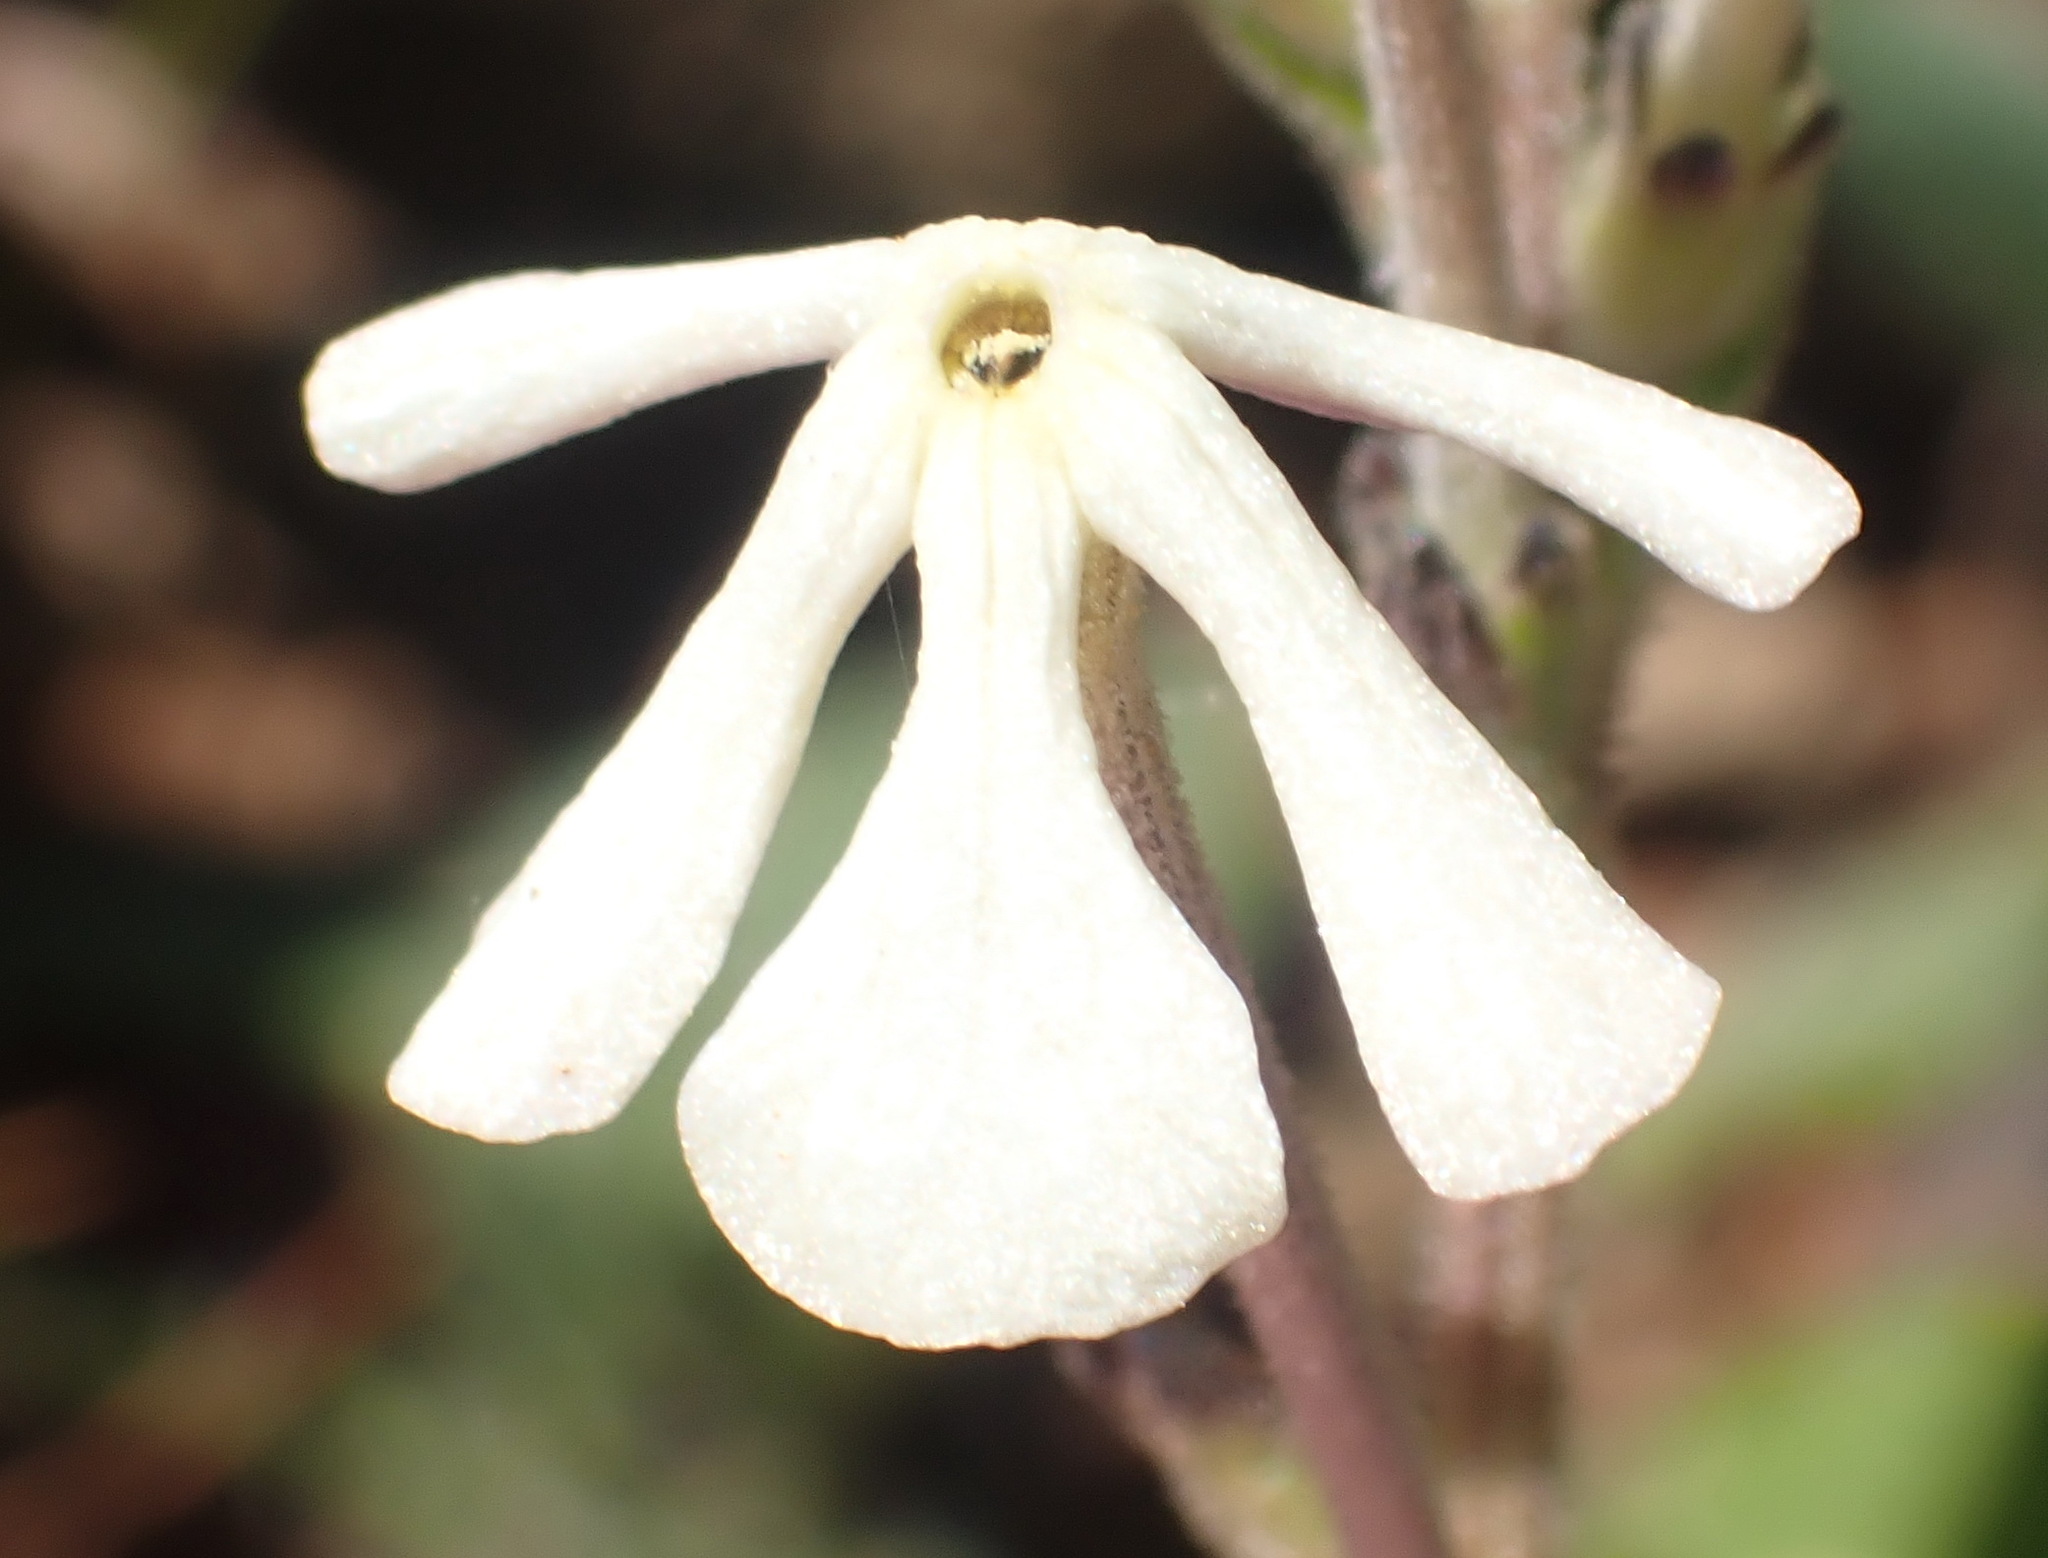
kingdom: Plantae
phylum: Tracheophyta
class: Magnoliopsida
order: Lamiales
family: Scrophulariaceae
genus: Lyperia
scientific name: Lyperia tristis
